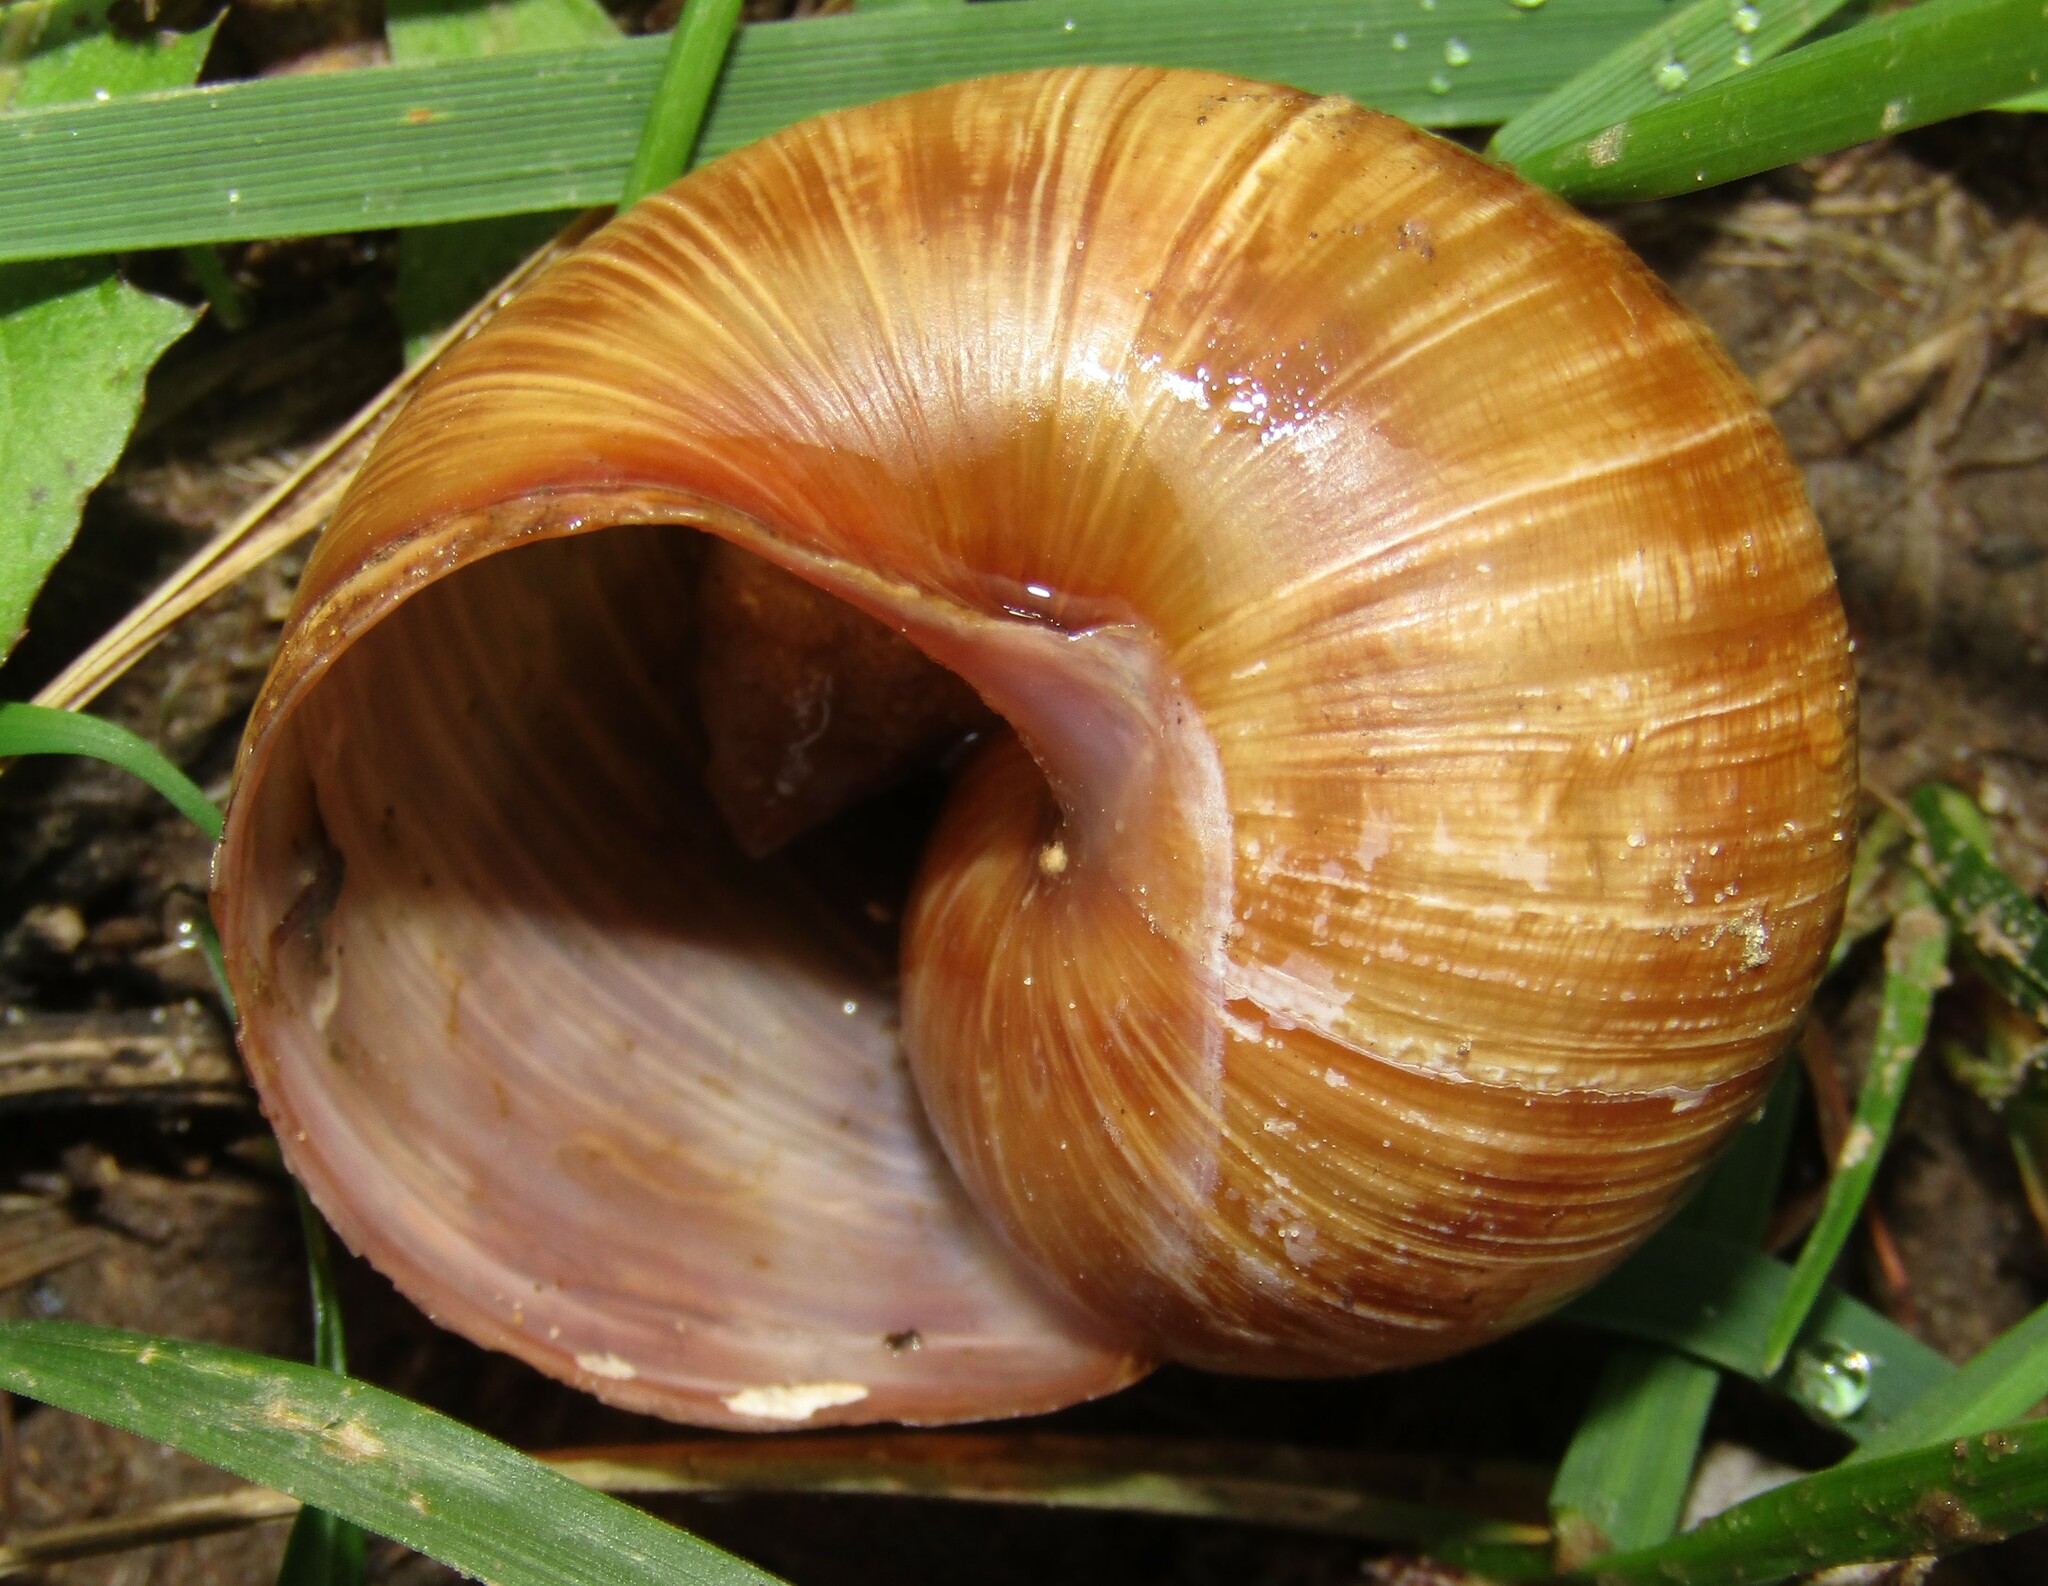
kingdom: Animalia
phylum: Mollusca
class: Gastropoda
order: Stylommatophora
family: Helicidae
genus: Helix
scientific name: Helix pomatia
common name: Roman snail
